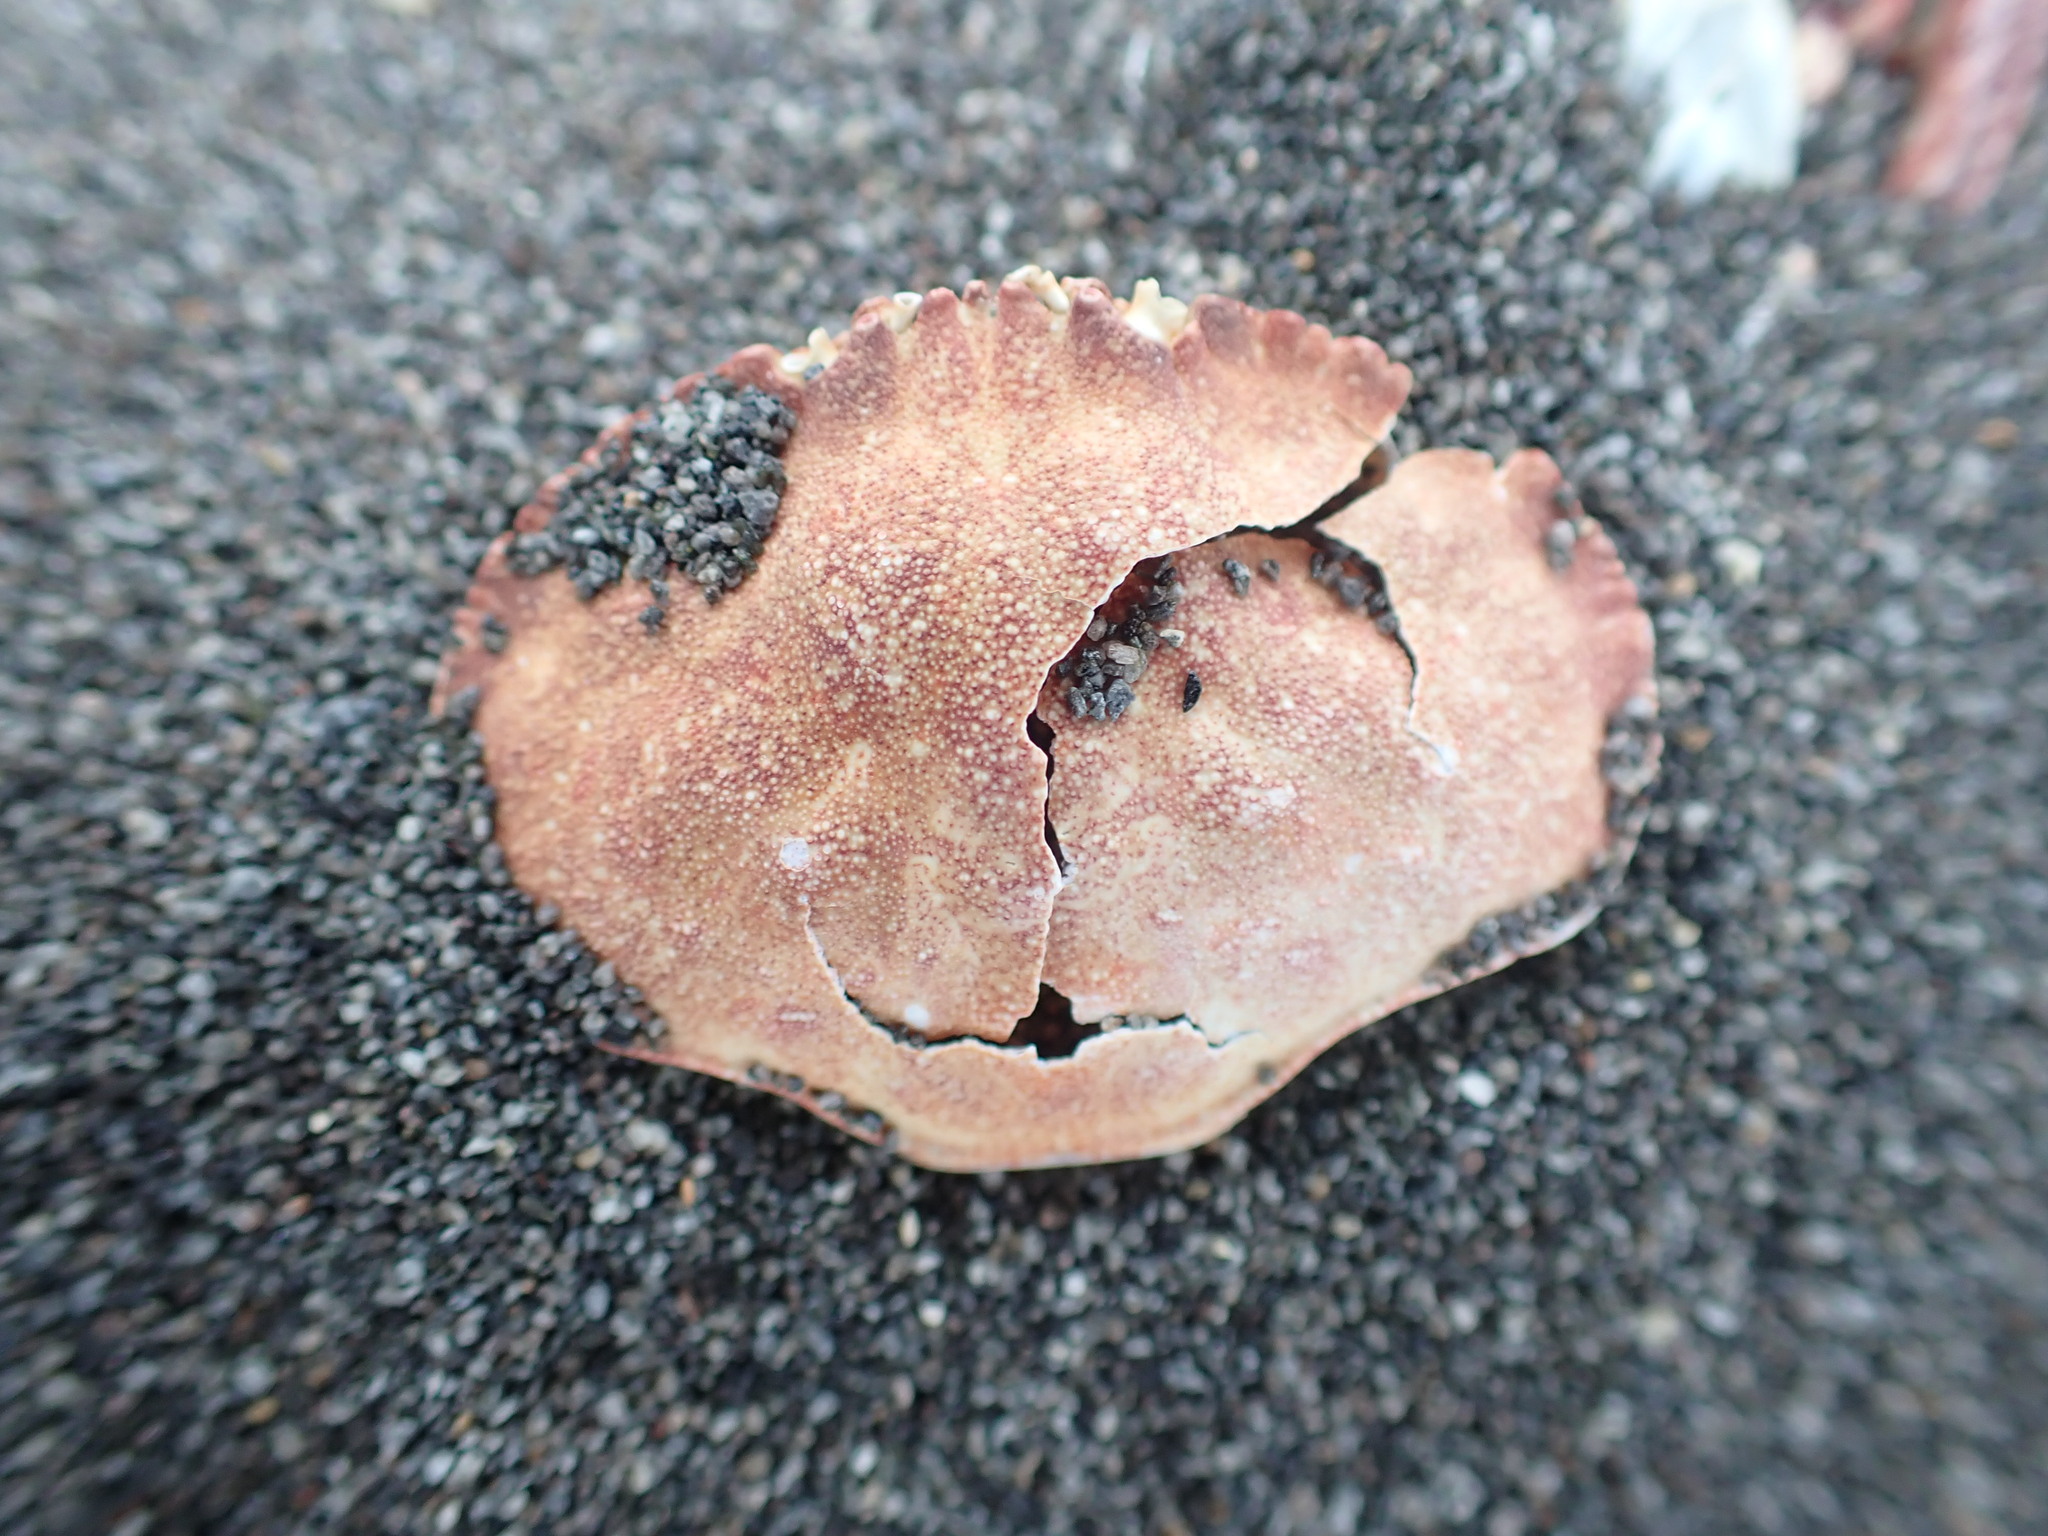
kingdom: Animalia
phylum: Arthropoda
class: Malacostraca
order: Decapoda
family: Cancridae
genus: Metacarcinus
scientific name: Metacarcinus novaezelandiae
